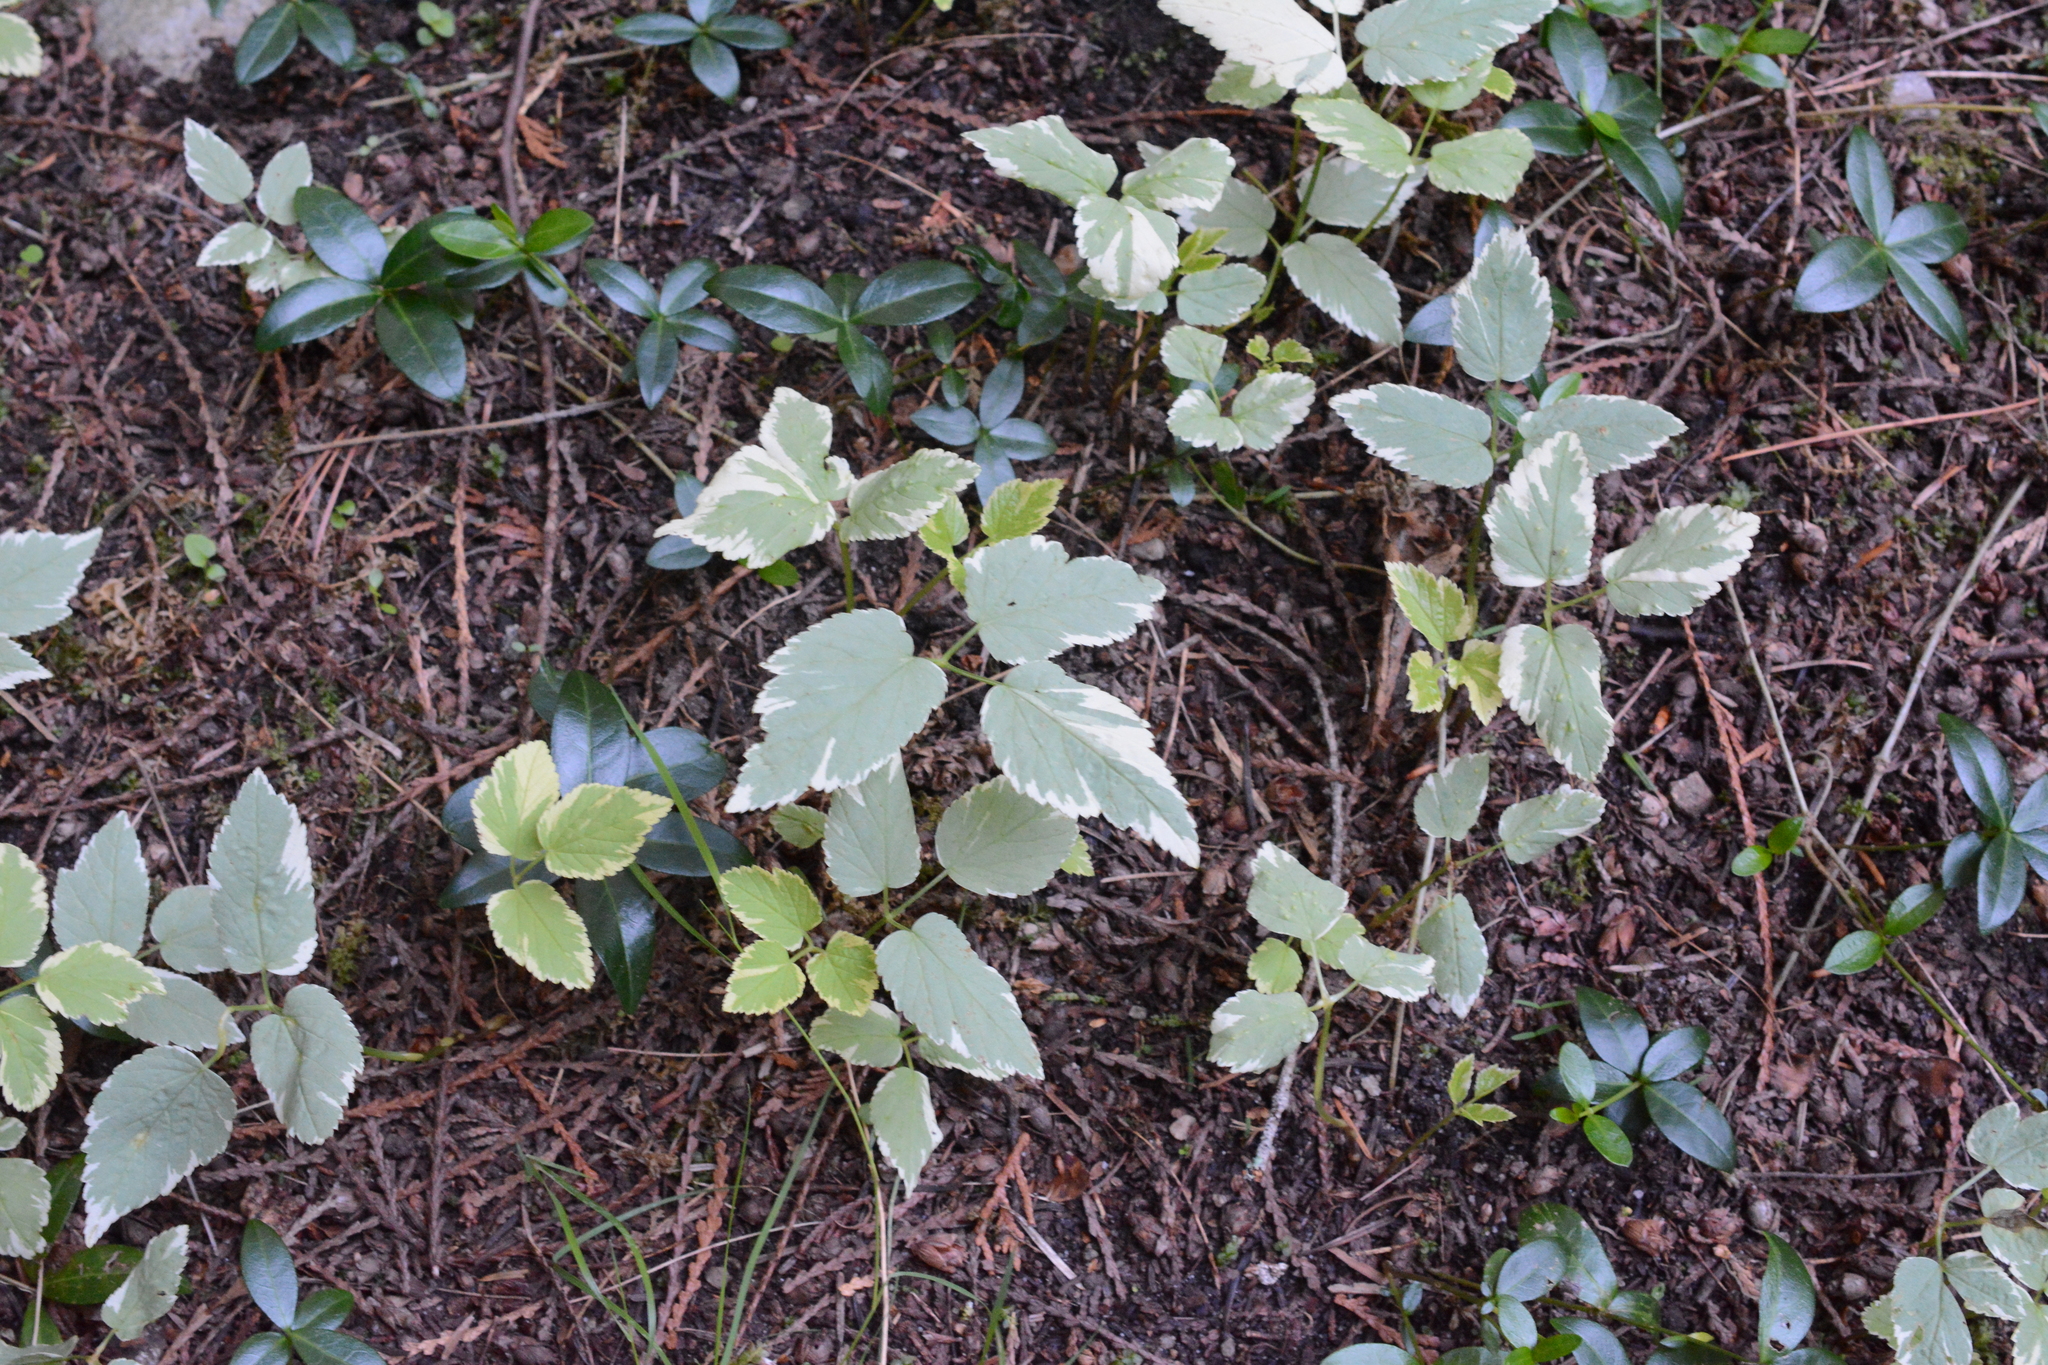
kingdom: Plantae
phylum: Tracheophyta
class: Magnoliopsida
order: Apiales
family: Apiaceae
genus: Aegopodium
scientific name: Aegopodium podagraria
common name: Ground-elder
